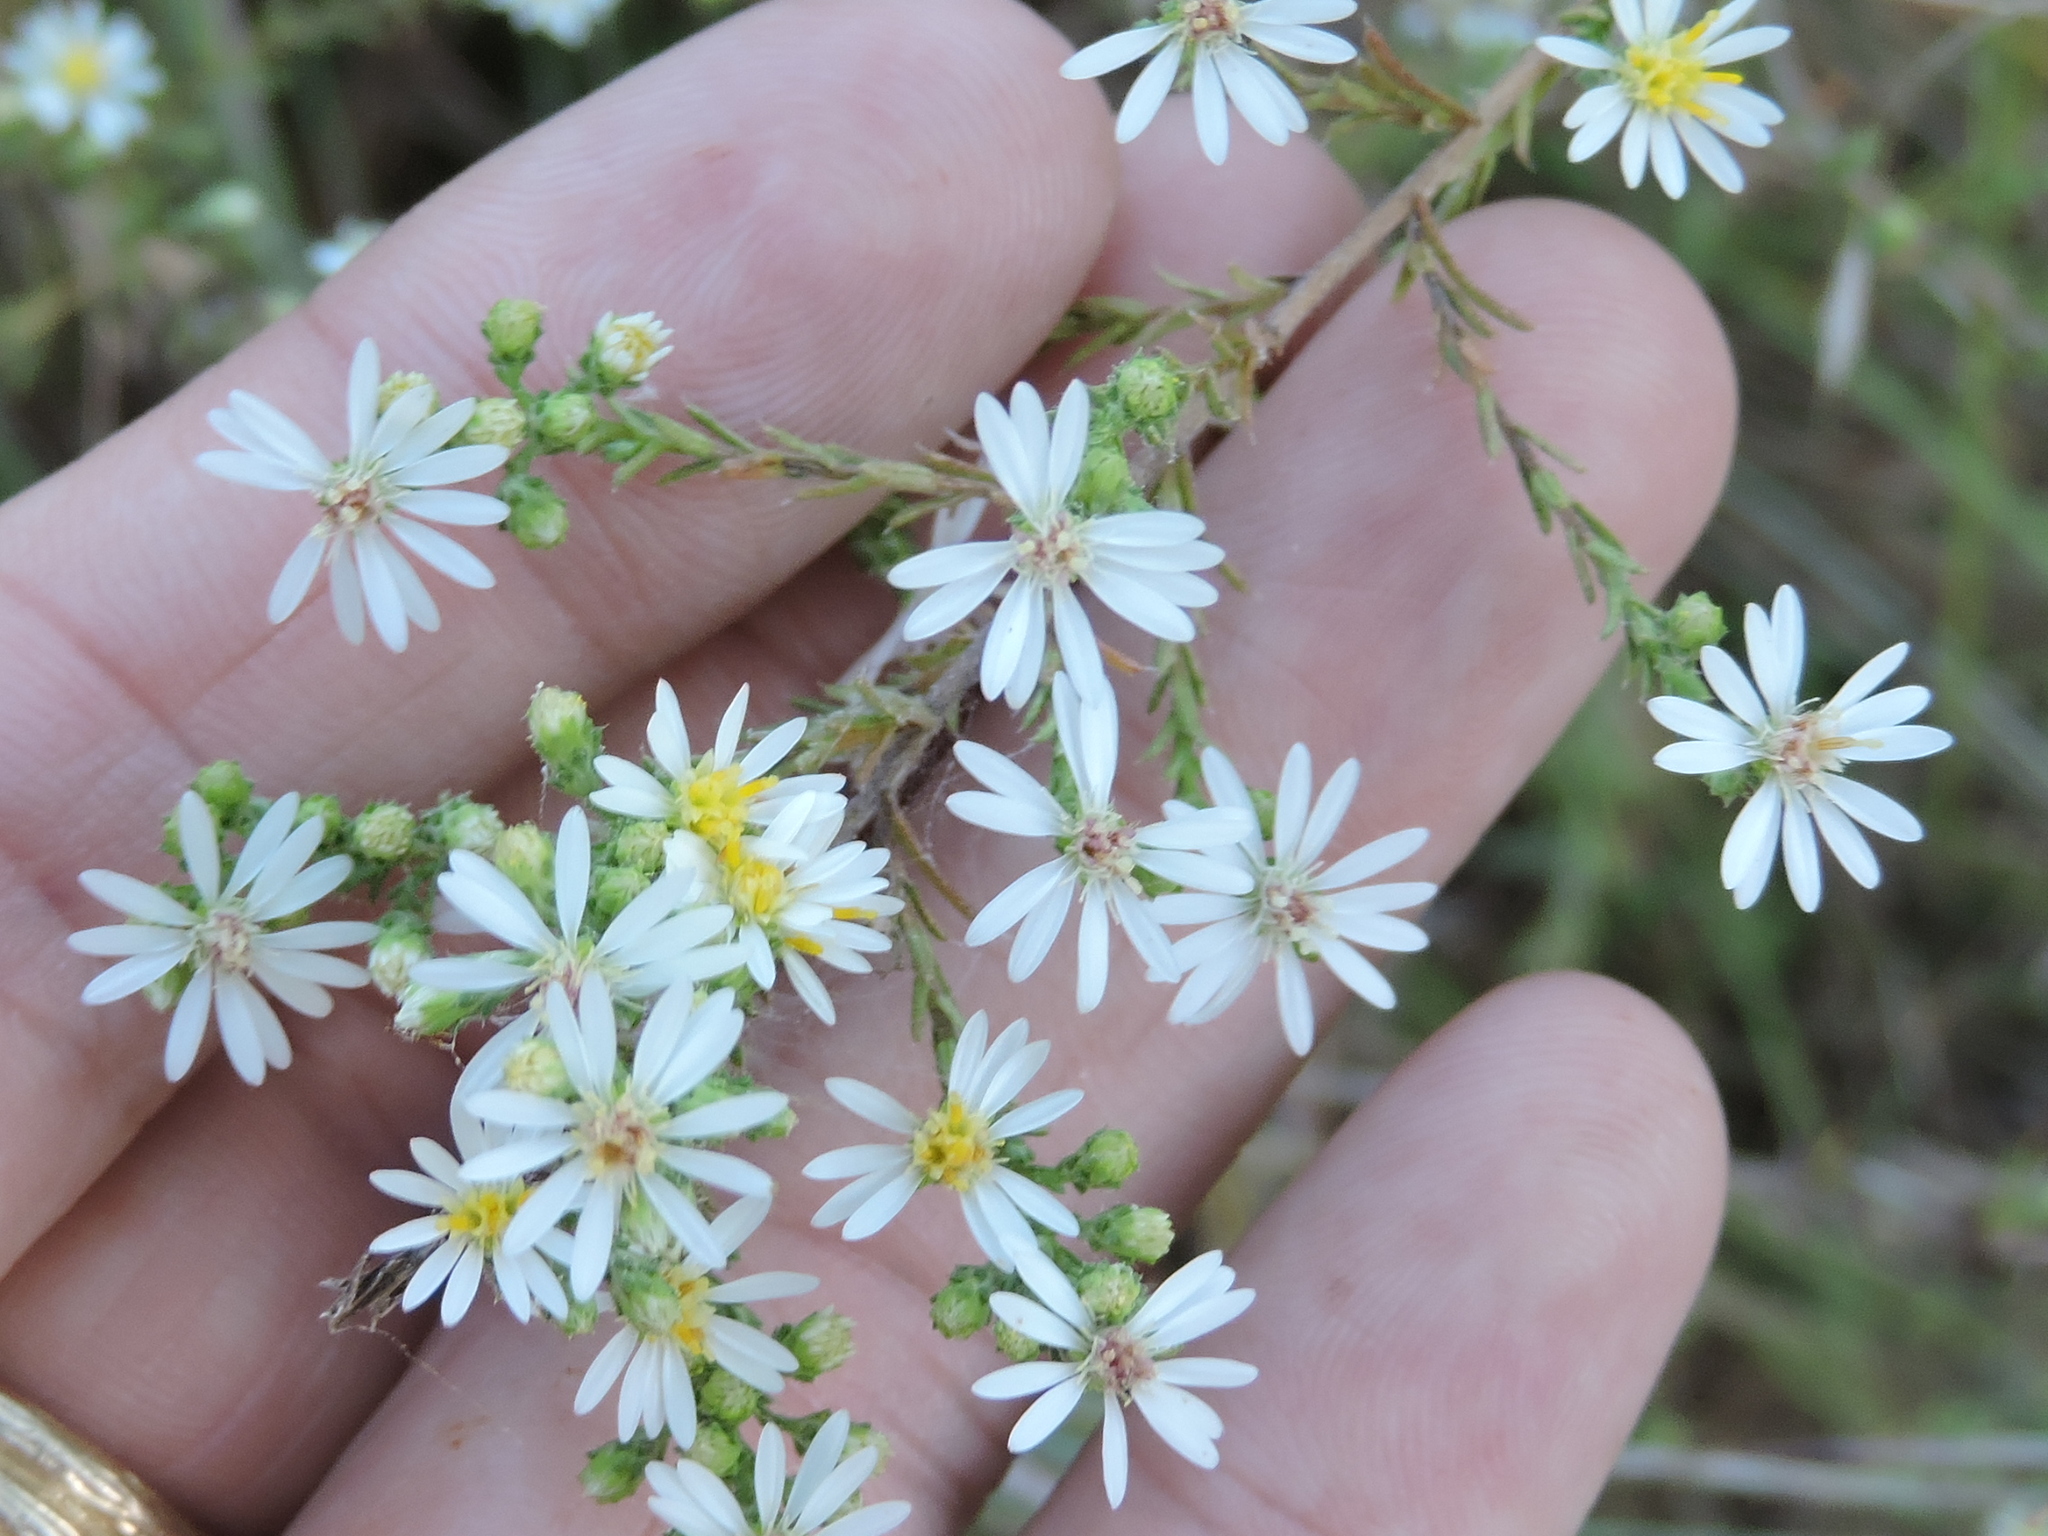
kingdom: Plantae
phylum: Tracheophyta
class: Magnoliopsida
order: Asterales
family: Asteraceae
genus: Symphyotrichum
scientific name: Symphyotrichum ericoides
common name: Heath aster
